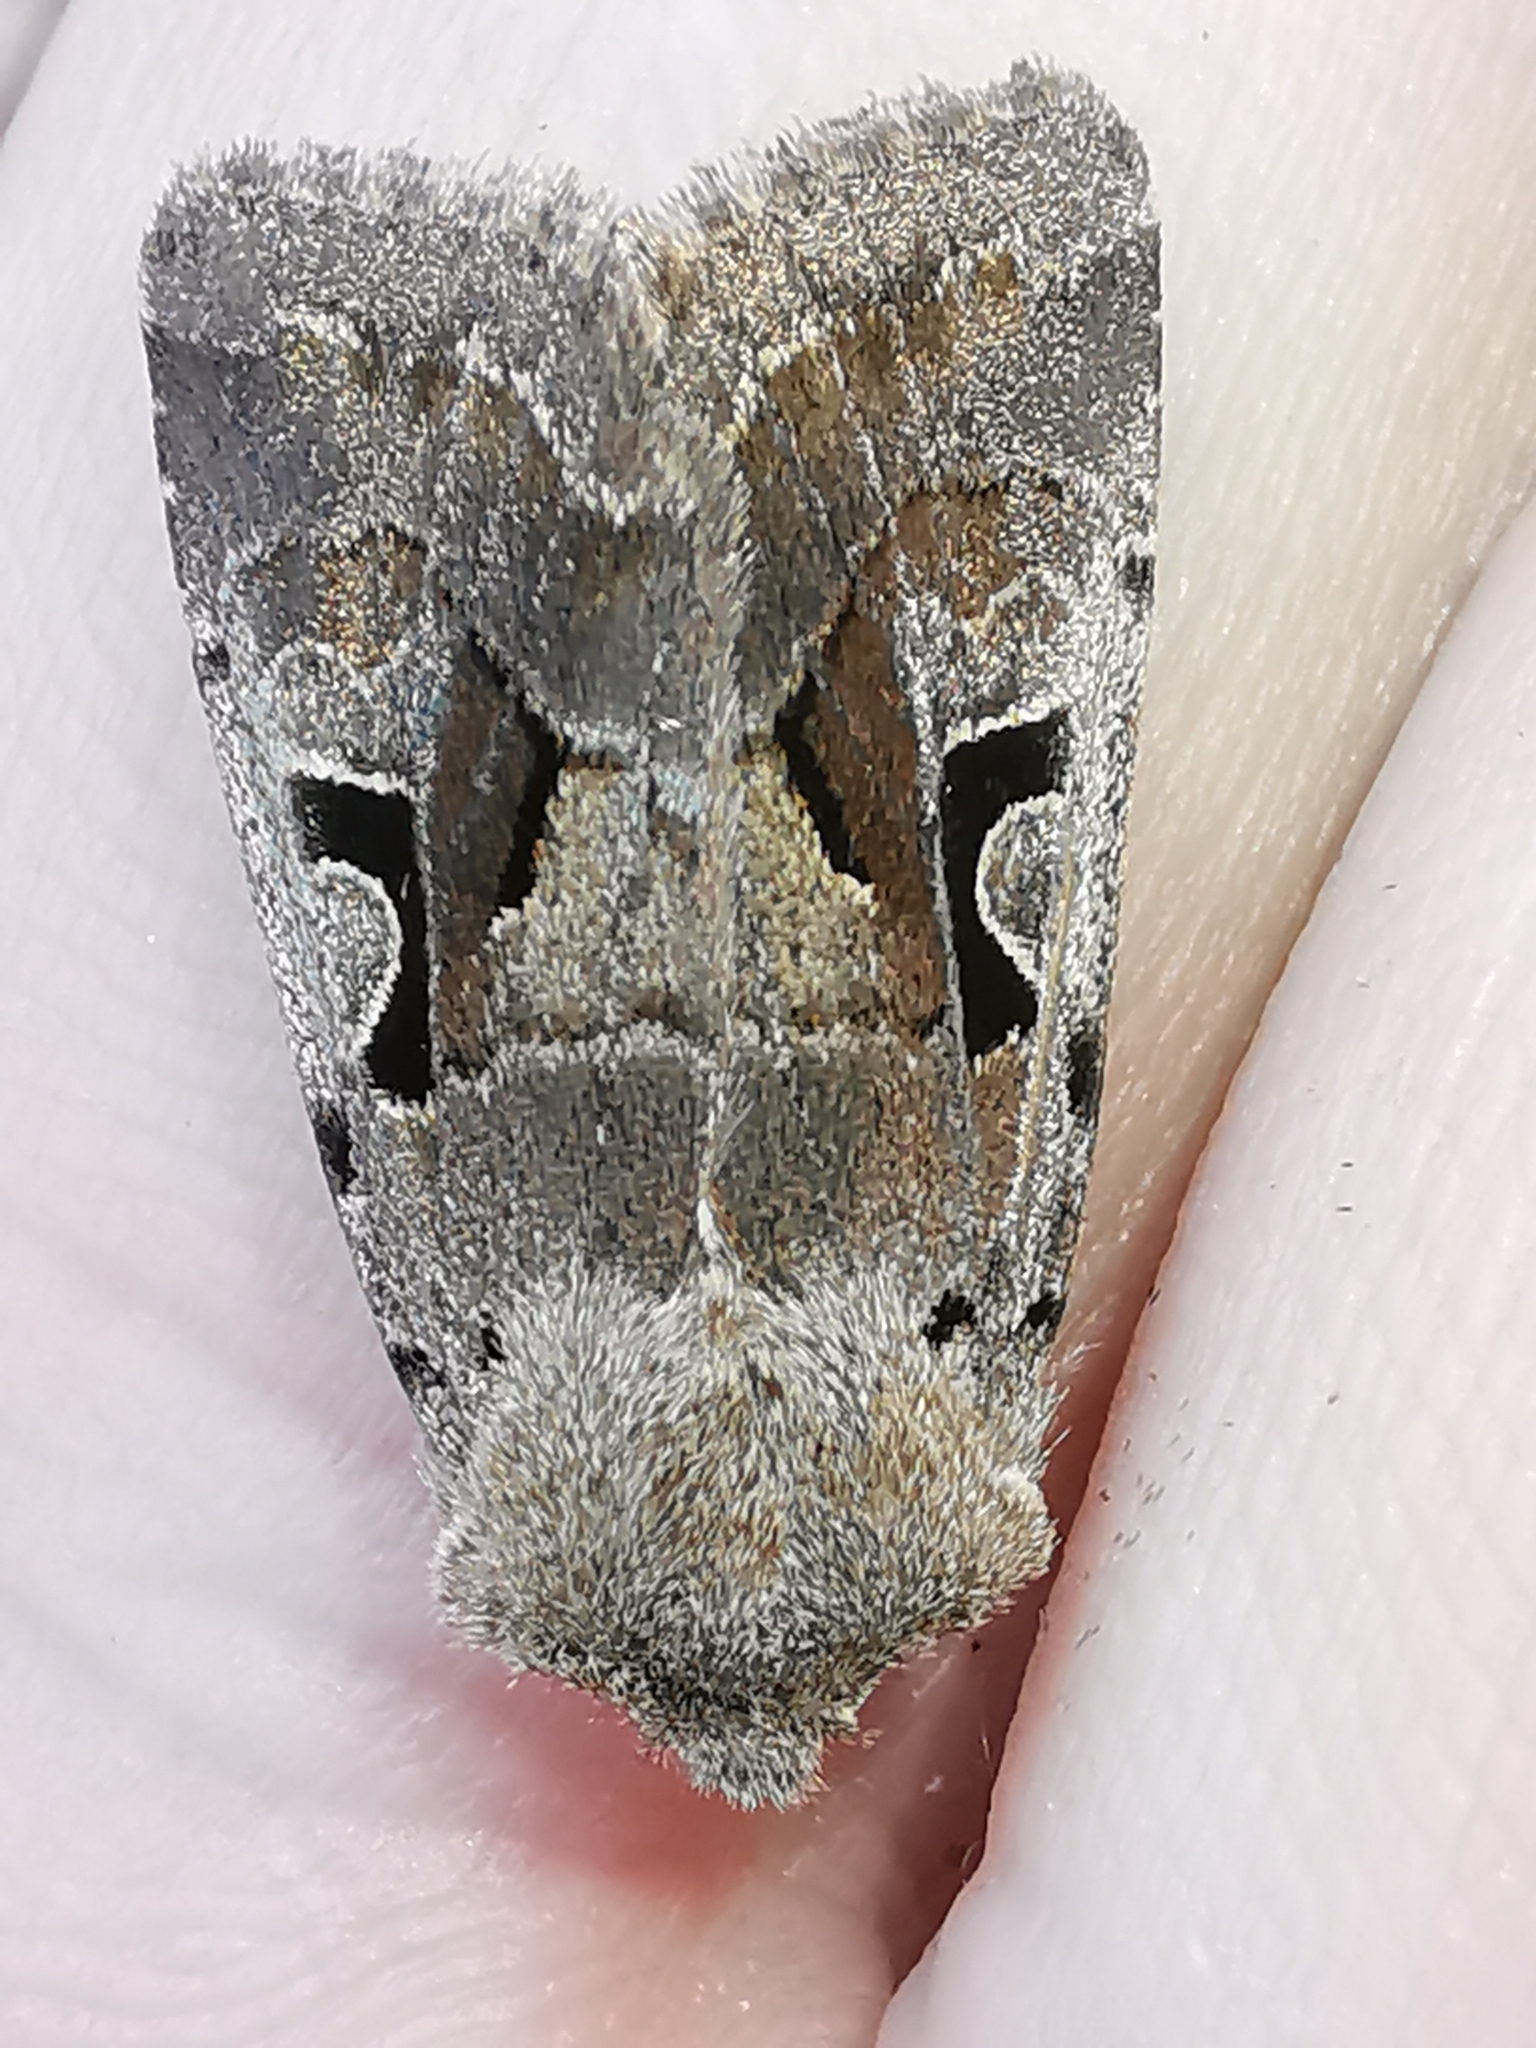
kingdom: Animalia
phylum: Arthropoda
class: Insecta
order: Lepidoptera
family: Noctuidae
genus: Orthosia
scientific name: Orthosia gothica
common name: Hebrew character
